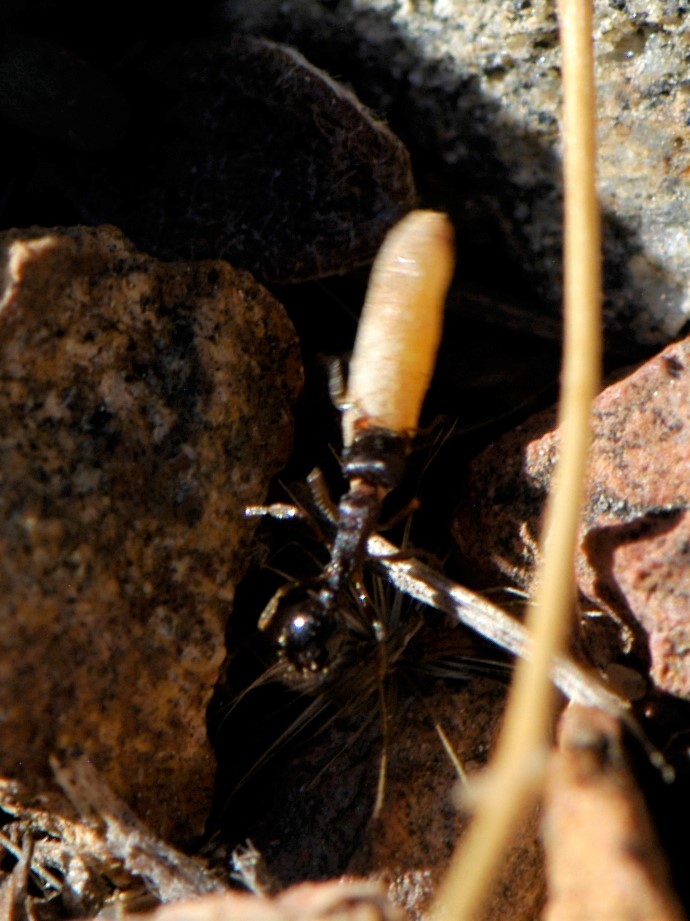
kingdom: Animalia
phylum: Arthropoda
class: Insecta
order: Hymenoptera
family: Formicidae
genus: Tetramorium
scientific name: Tetramorium immigrans
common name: Pavement ant
